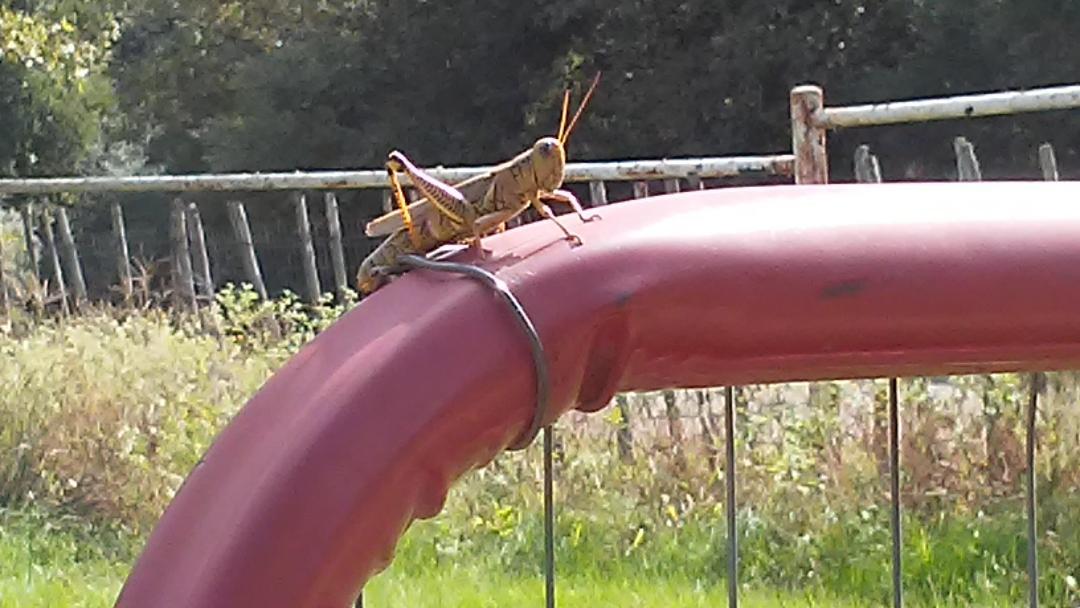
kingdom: Animalia
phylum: Arthropoda
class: Insecta
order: Orthoptera
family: Acrididae
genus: Melanoplus
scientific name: Melanoplus differentialis
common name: Differential grasshopper
